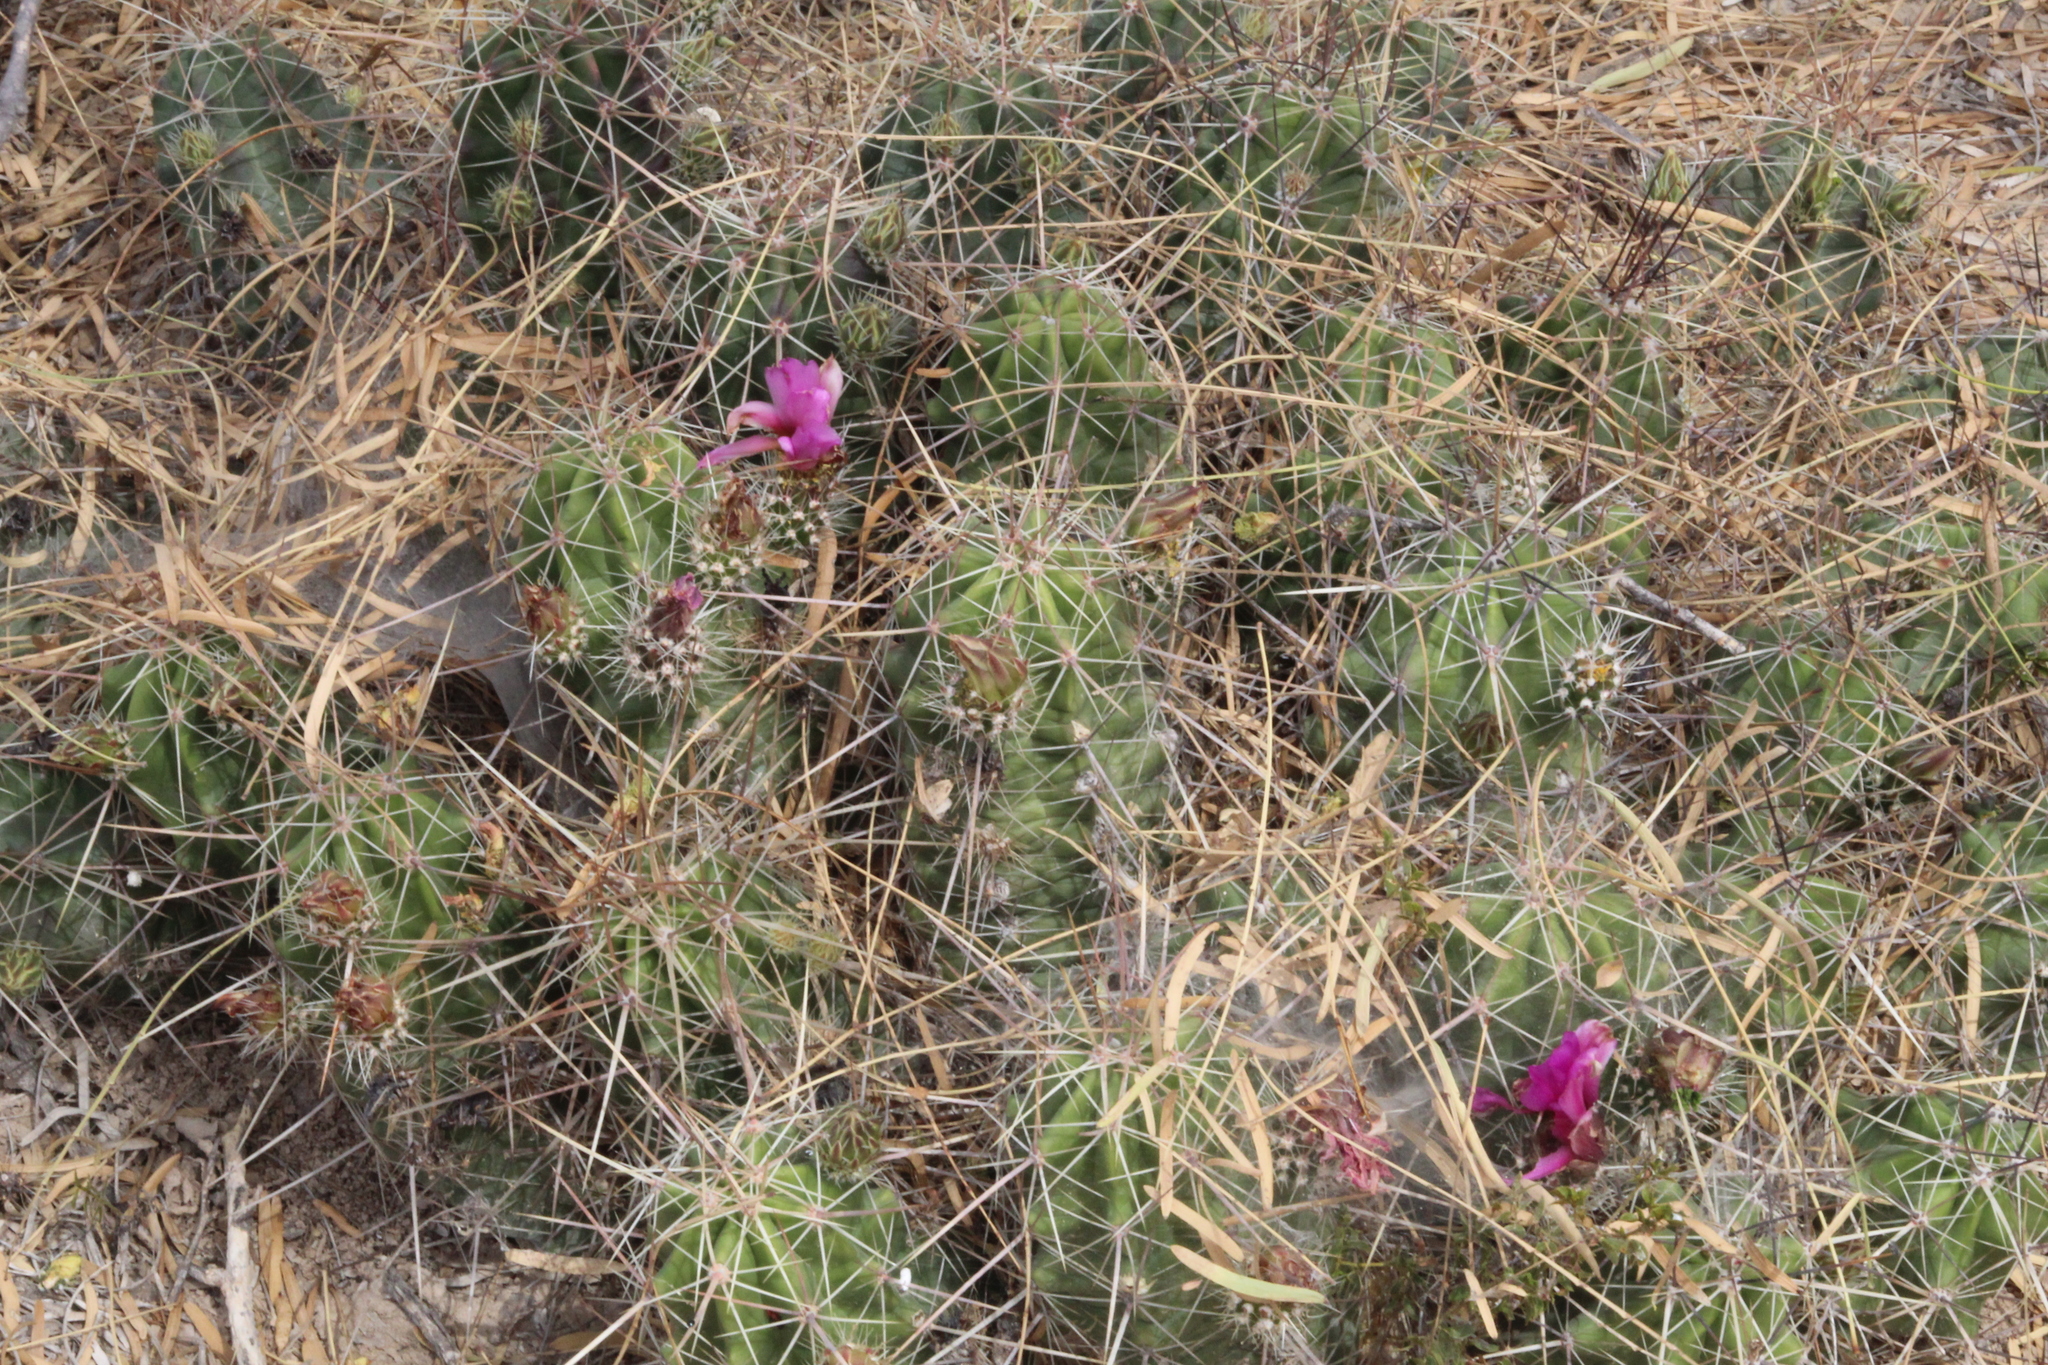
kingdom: Plantae
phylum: Tracheophyta
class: Magnoliopsida
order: Caryophyllales
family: Cactaceae
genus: Echinocereus
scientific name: Echinocereus enneacanthus
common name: Pitaya
